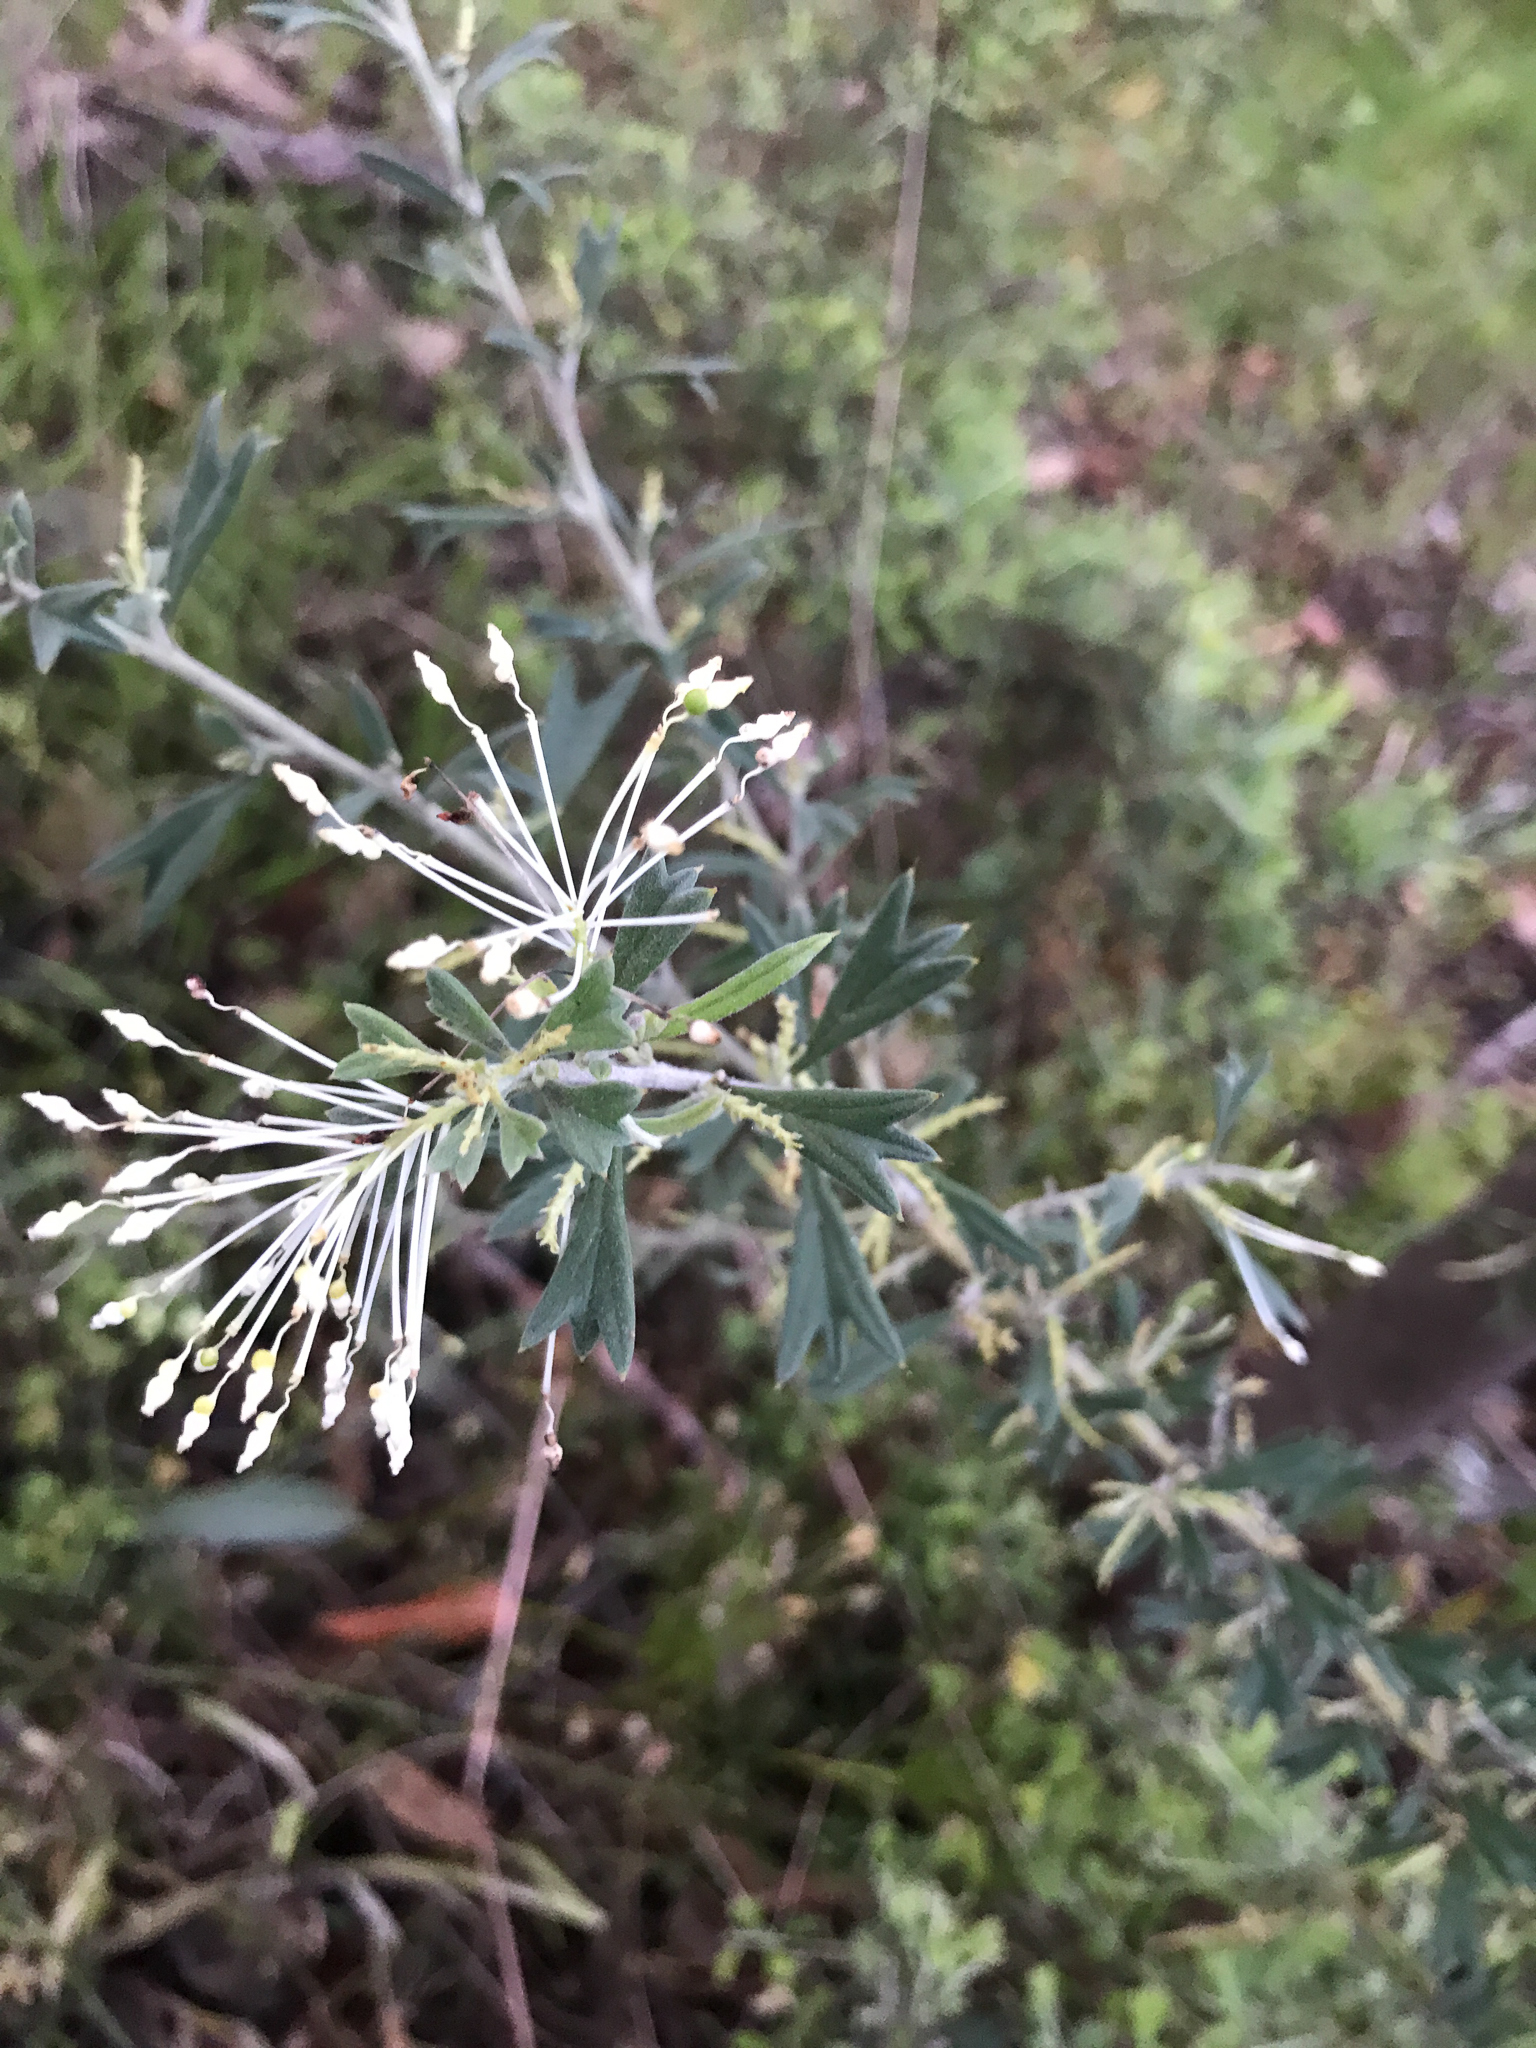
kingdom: Plantae
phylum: Tracheophyta
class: Magnoliopsida
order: Proteales
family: Proteaceae
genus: Grevillea
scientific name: Grevillea vestita
